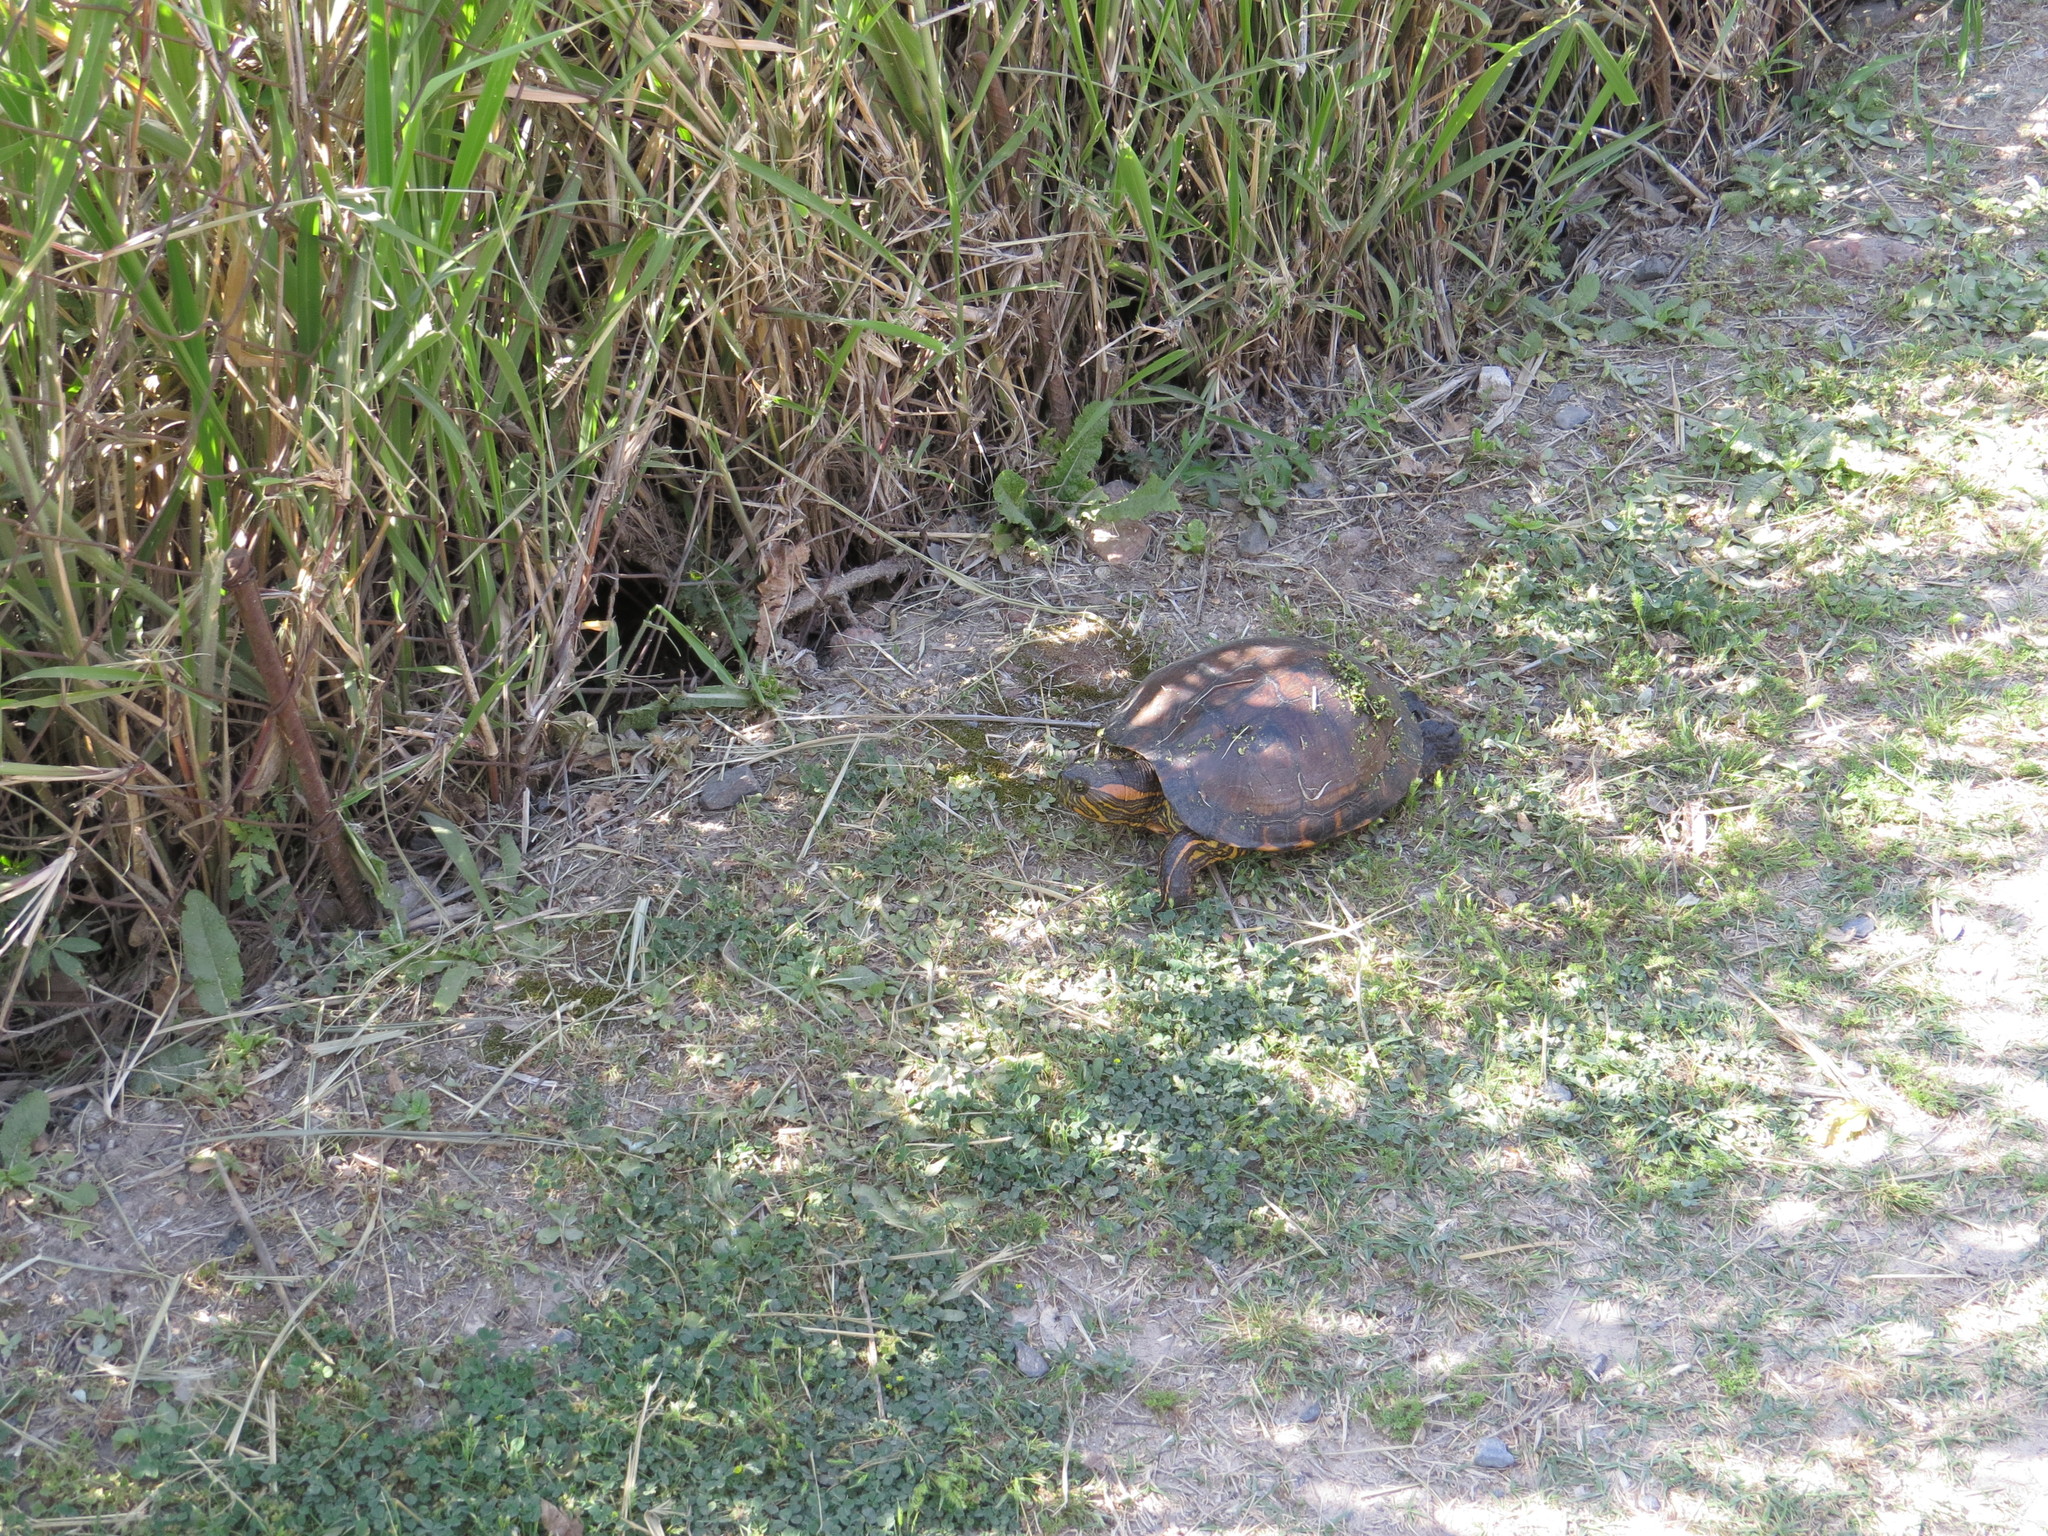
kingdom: Animalia
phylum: Chordata
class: Testudines
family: Emydidae
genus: Trachemys
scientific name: Trachemys dorbigni
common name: Black-bellied slider
